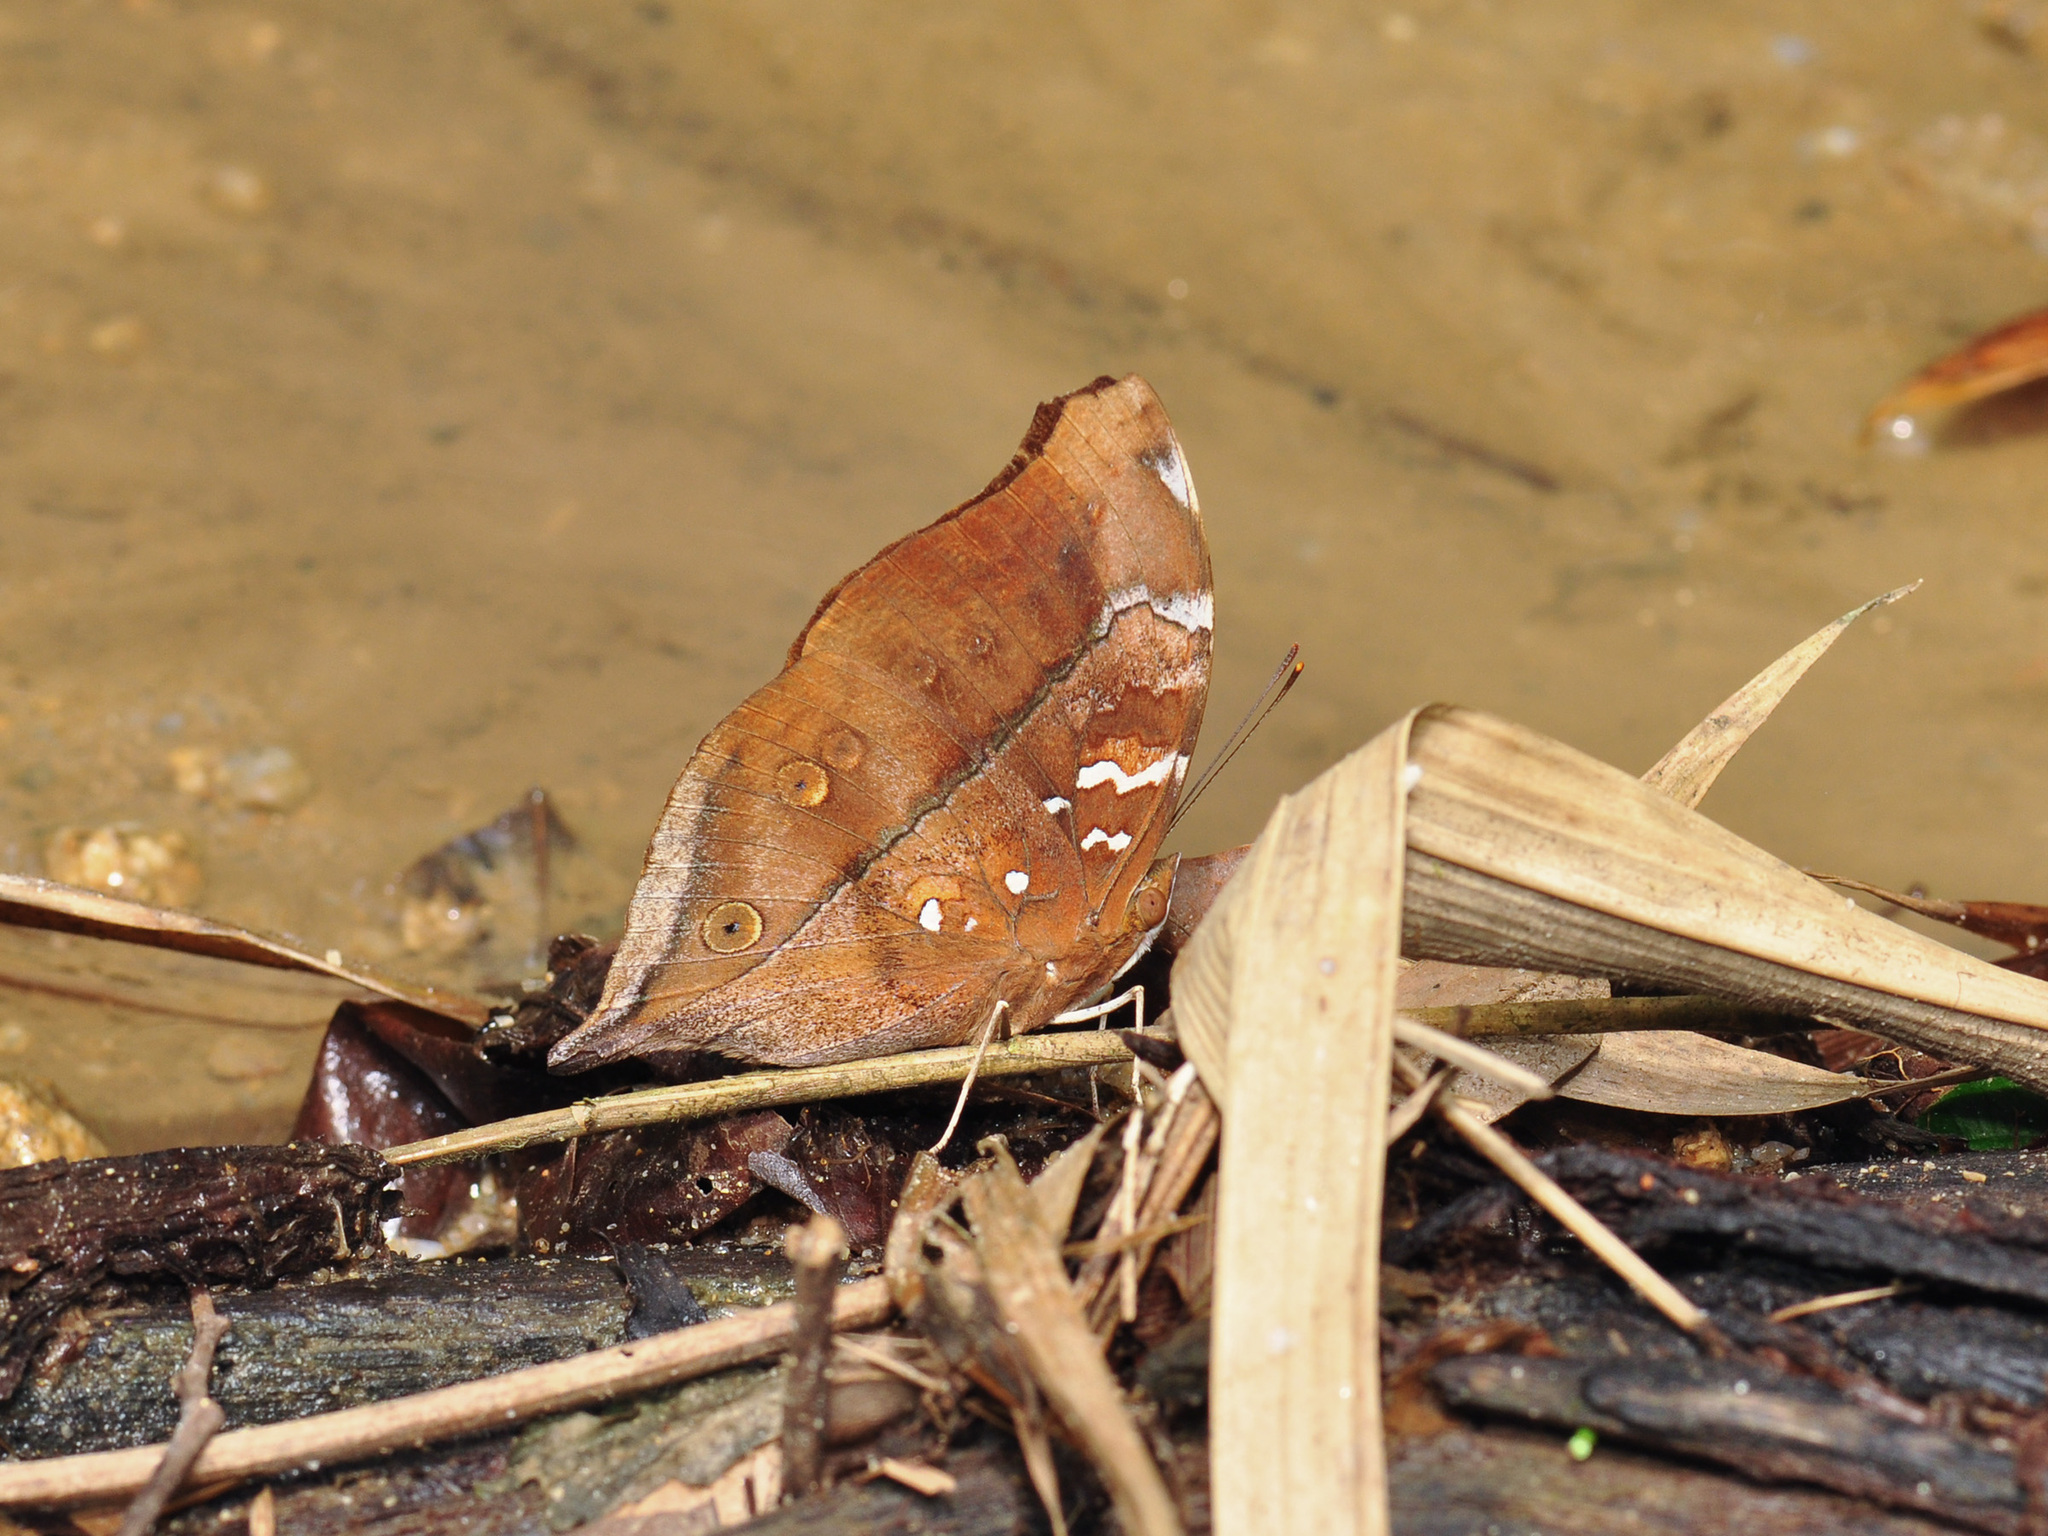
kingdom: Animalia
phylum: Arthropoda
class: Insecta
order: Lepidoptera
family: Nymphalidae
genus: Doleschallia
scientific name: Doleschallia bisaltide
